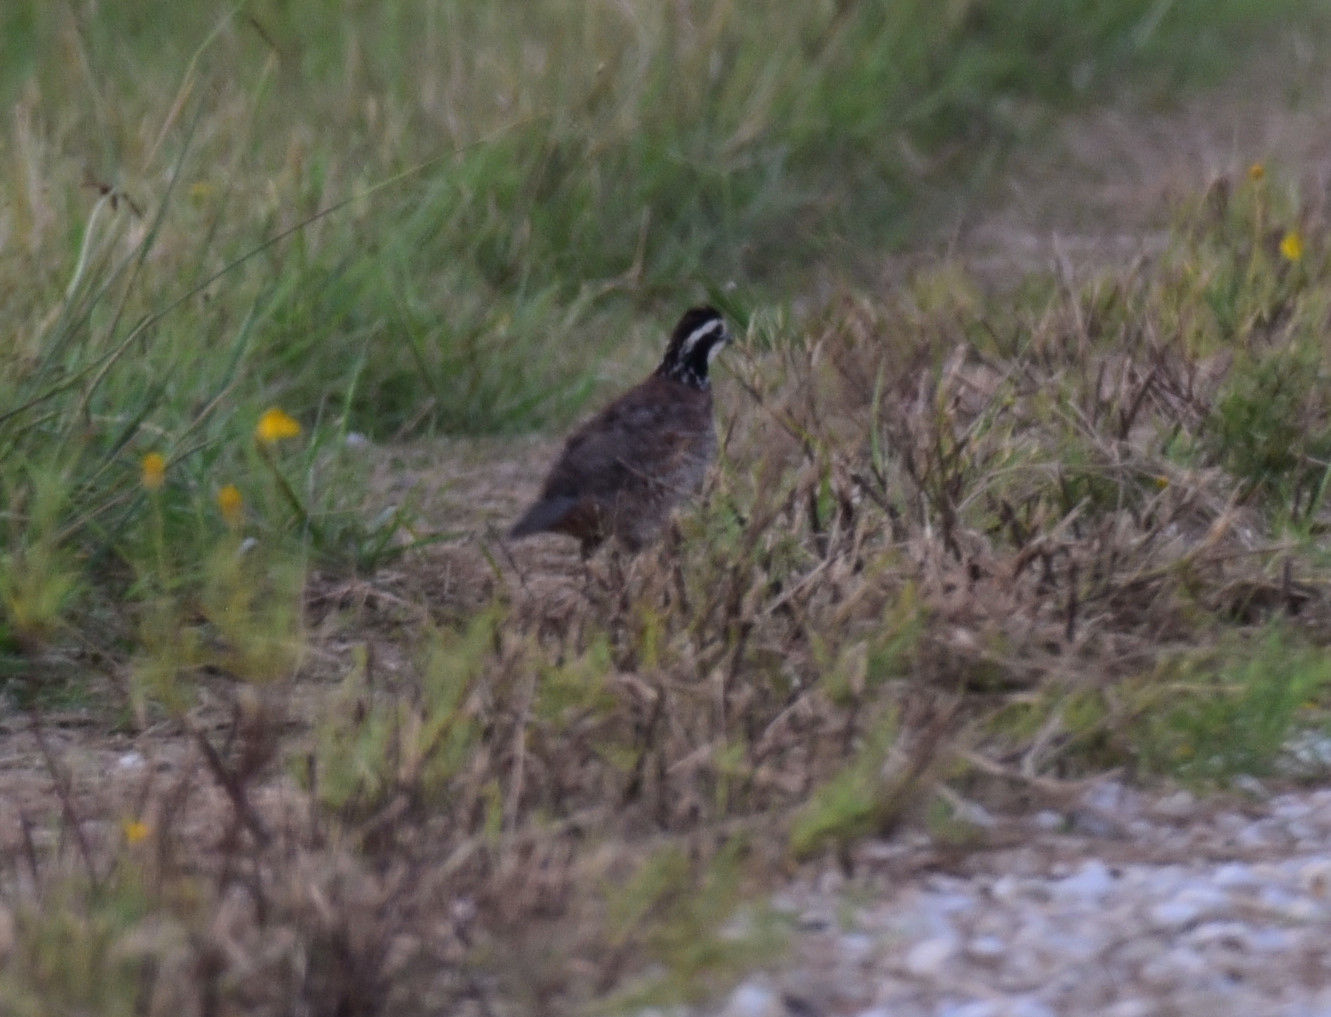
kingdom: Animalia
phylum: Chordata
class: Aves
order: Galliformes
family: Odontophoridae
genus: Colinus
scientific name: Colinus virginianus
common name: Northern bobwhite
